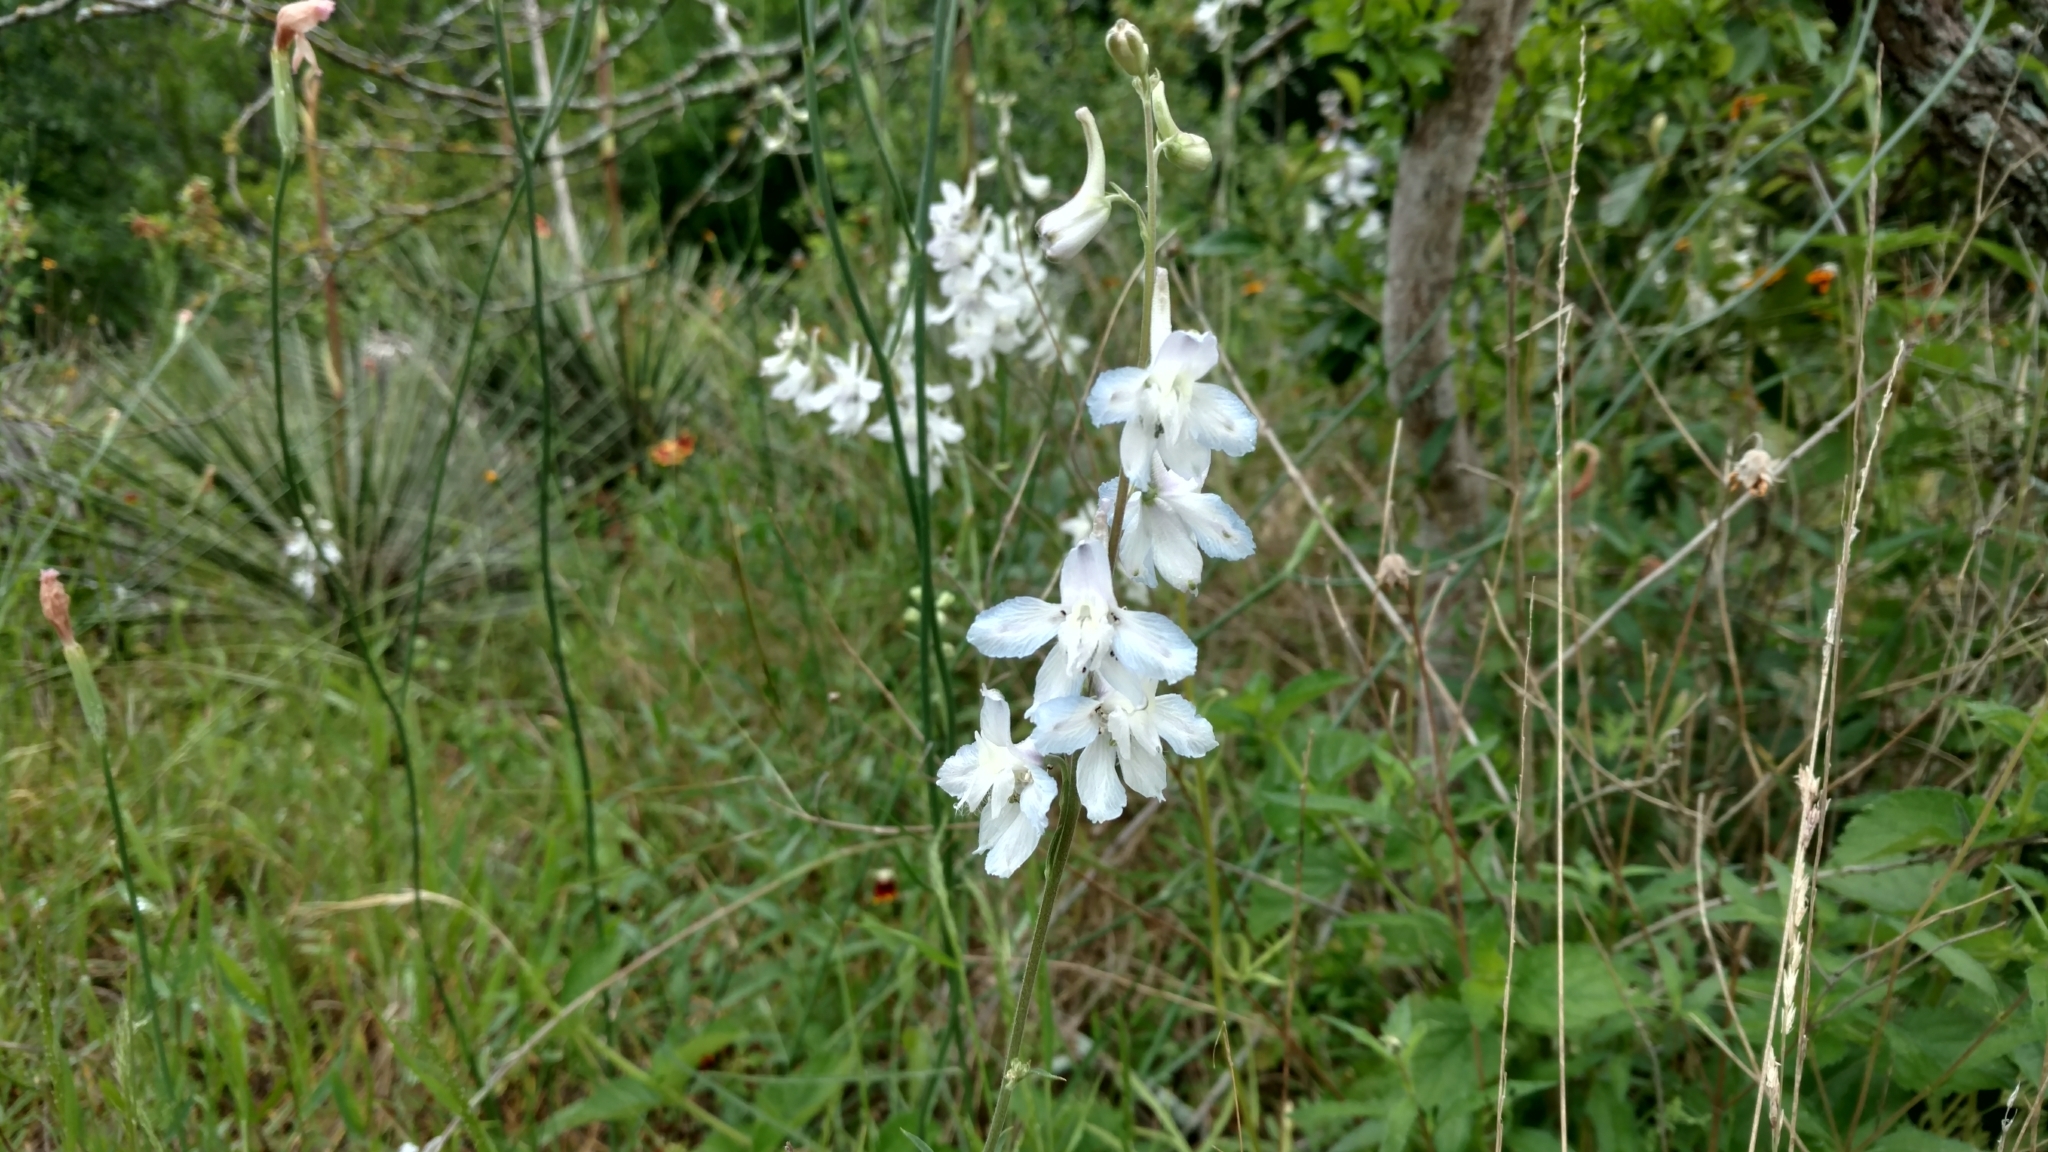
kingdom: Plantae
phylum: Tracheophyta
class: Magnoliopsida
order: Ranunculales
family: Ranunculaceae
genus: Delphinium
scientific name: Delphinium carolinianum
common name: Carolina larkspur
